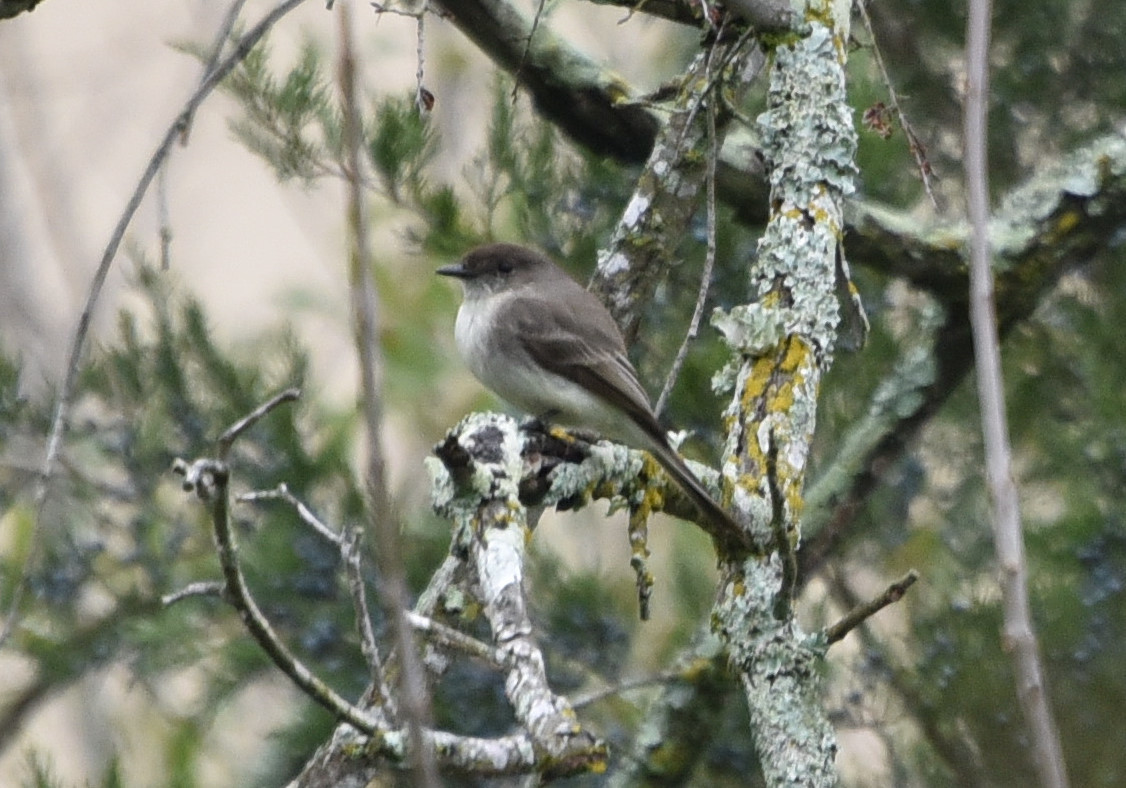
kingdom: Animalia
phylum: Chordata
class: Aves
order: Passeriformes
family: Tyrannidae
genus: Sayornis
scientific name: Sayornis phoebe
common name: Eastern phoebe
